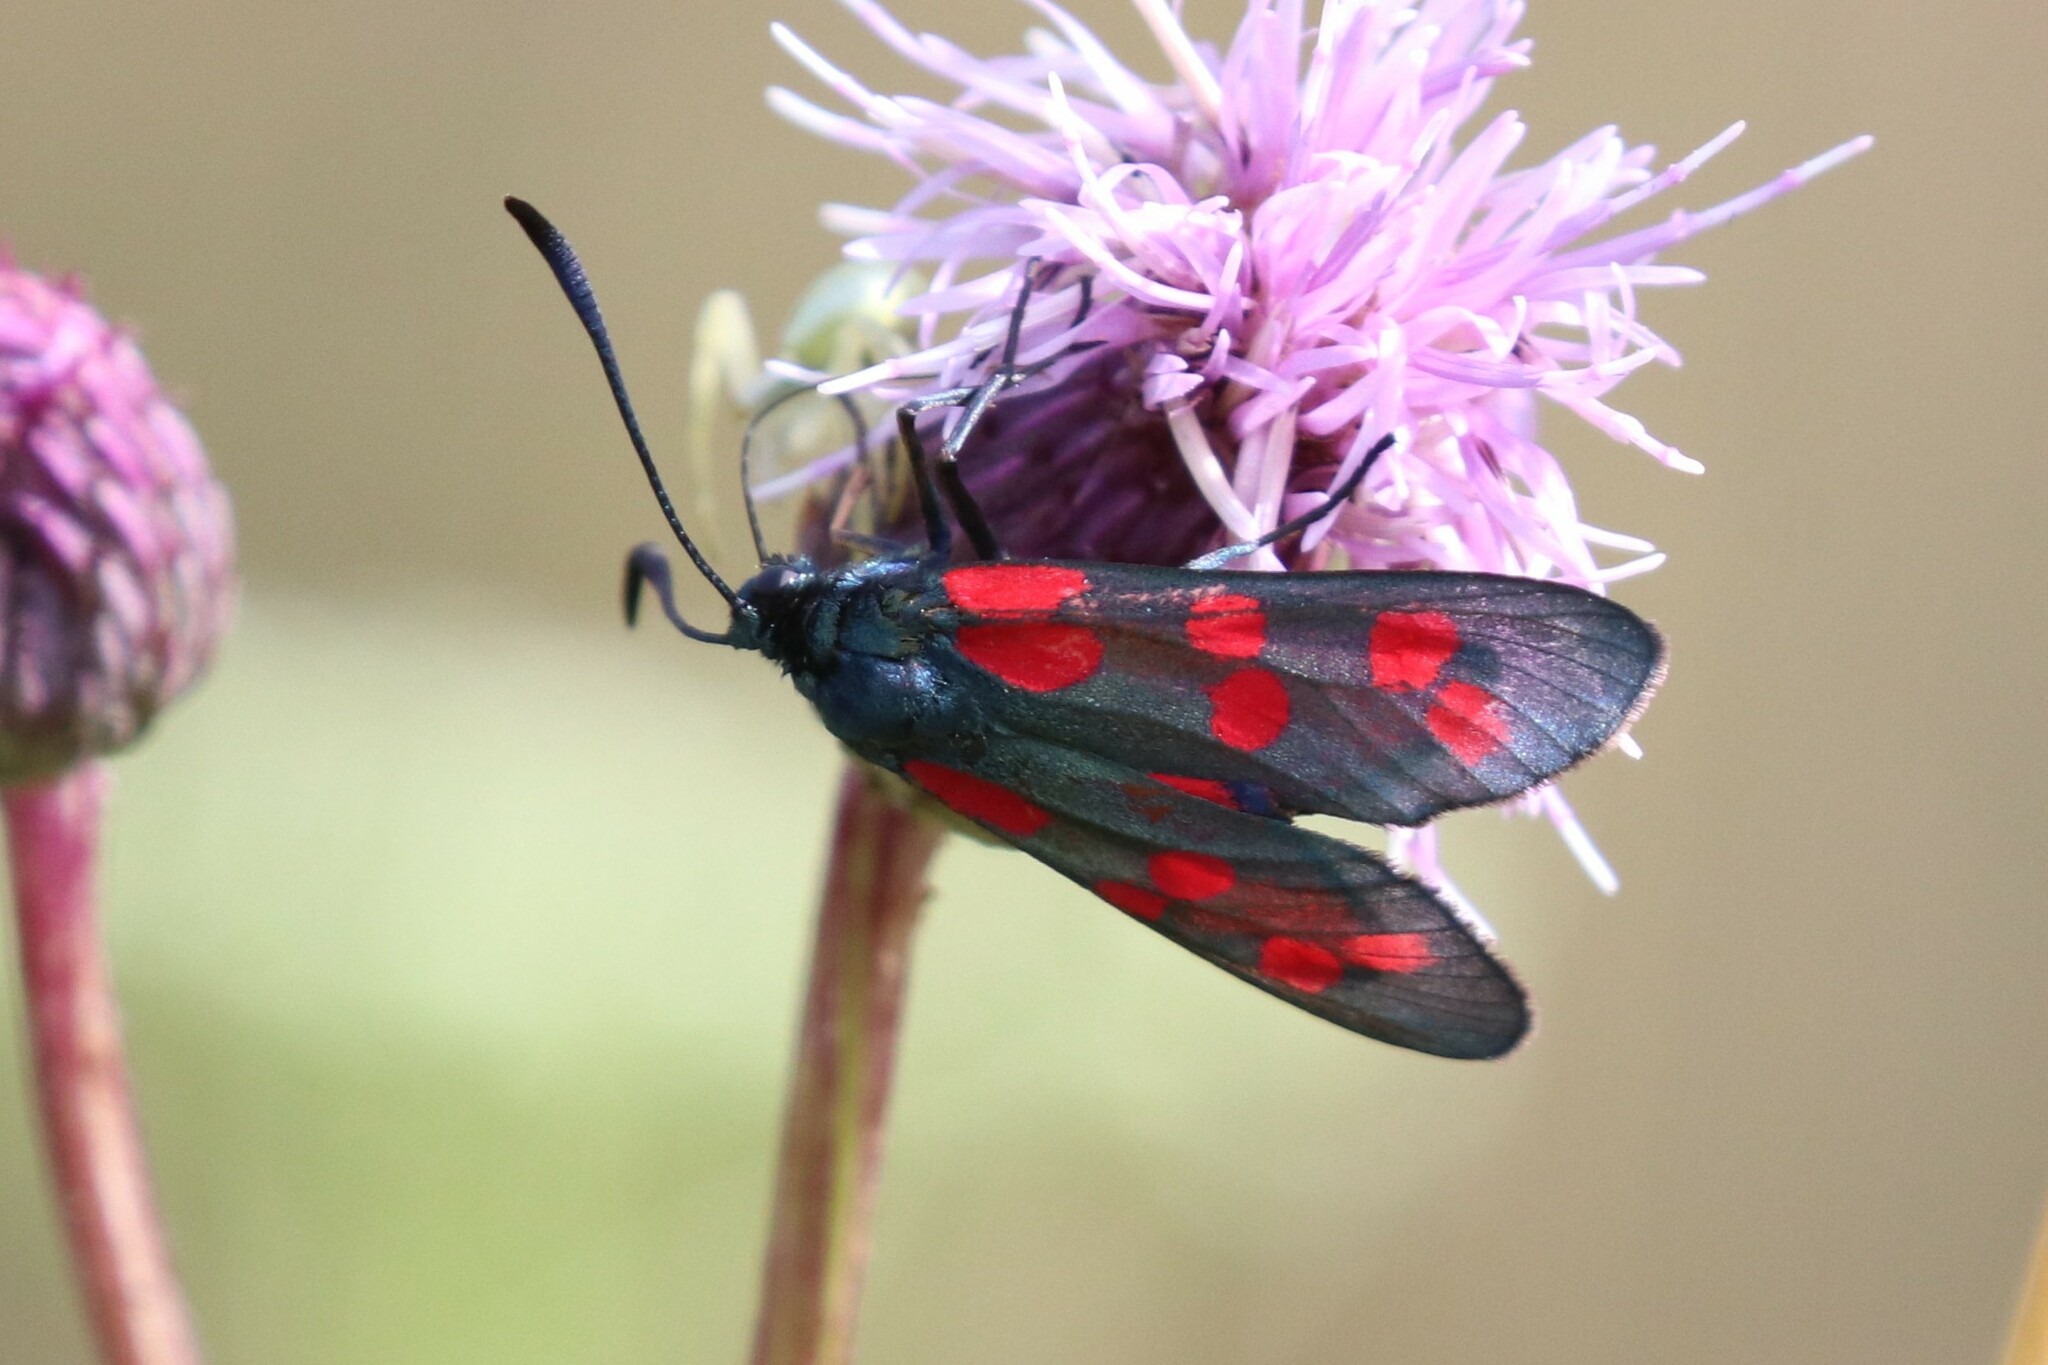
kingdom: Animalia
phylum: Arthropoda
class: Insecta
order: Lepidoptera
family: Zygaenidae
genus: Zygaena
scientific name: Zygaena filipendulae
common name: Six-spot burnet
